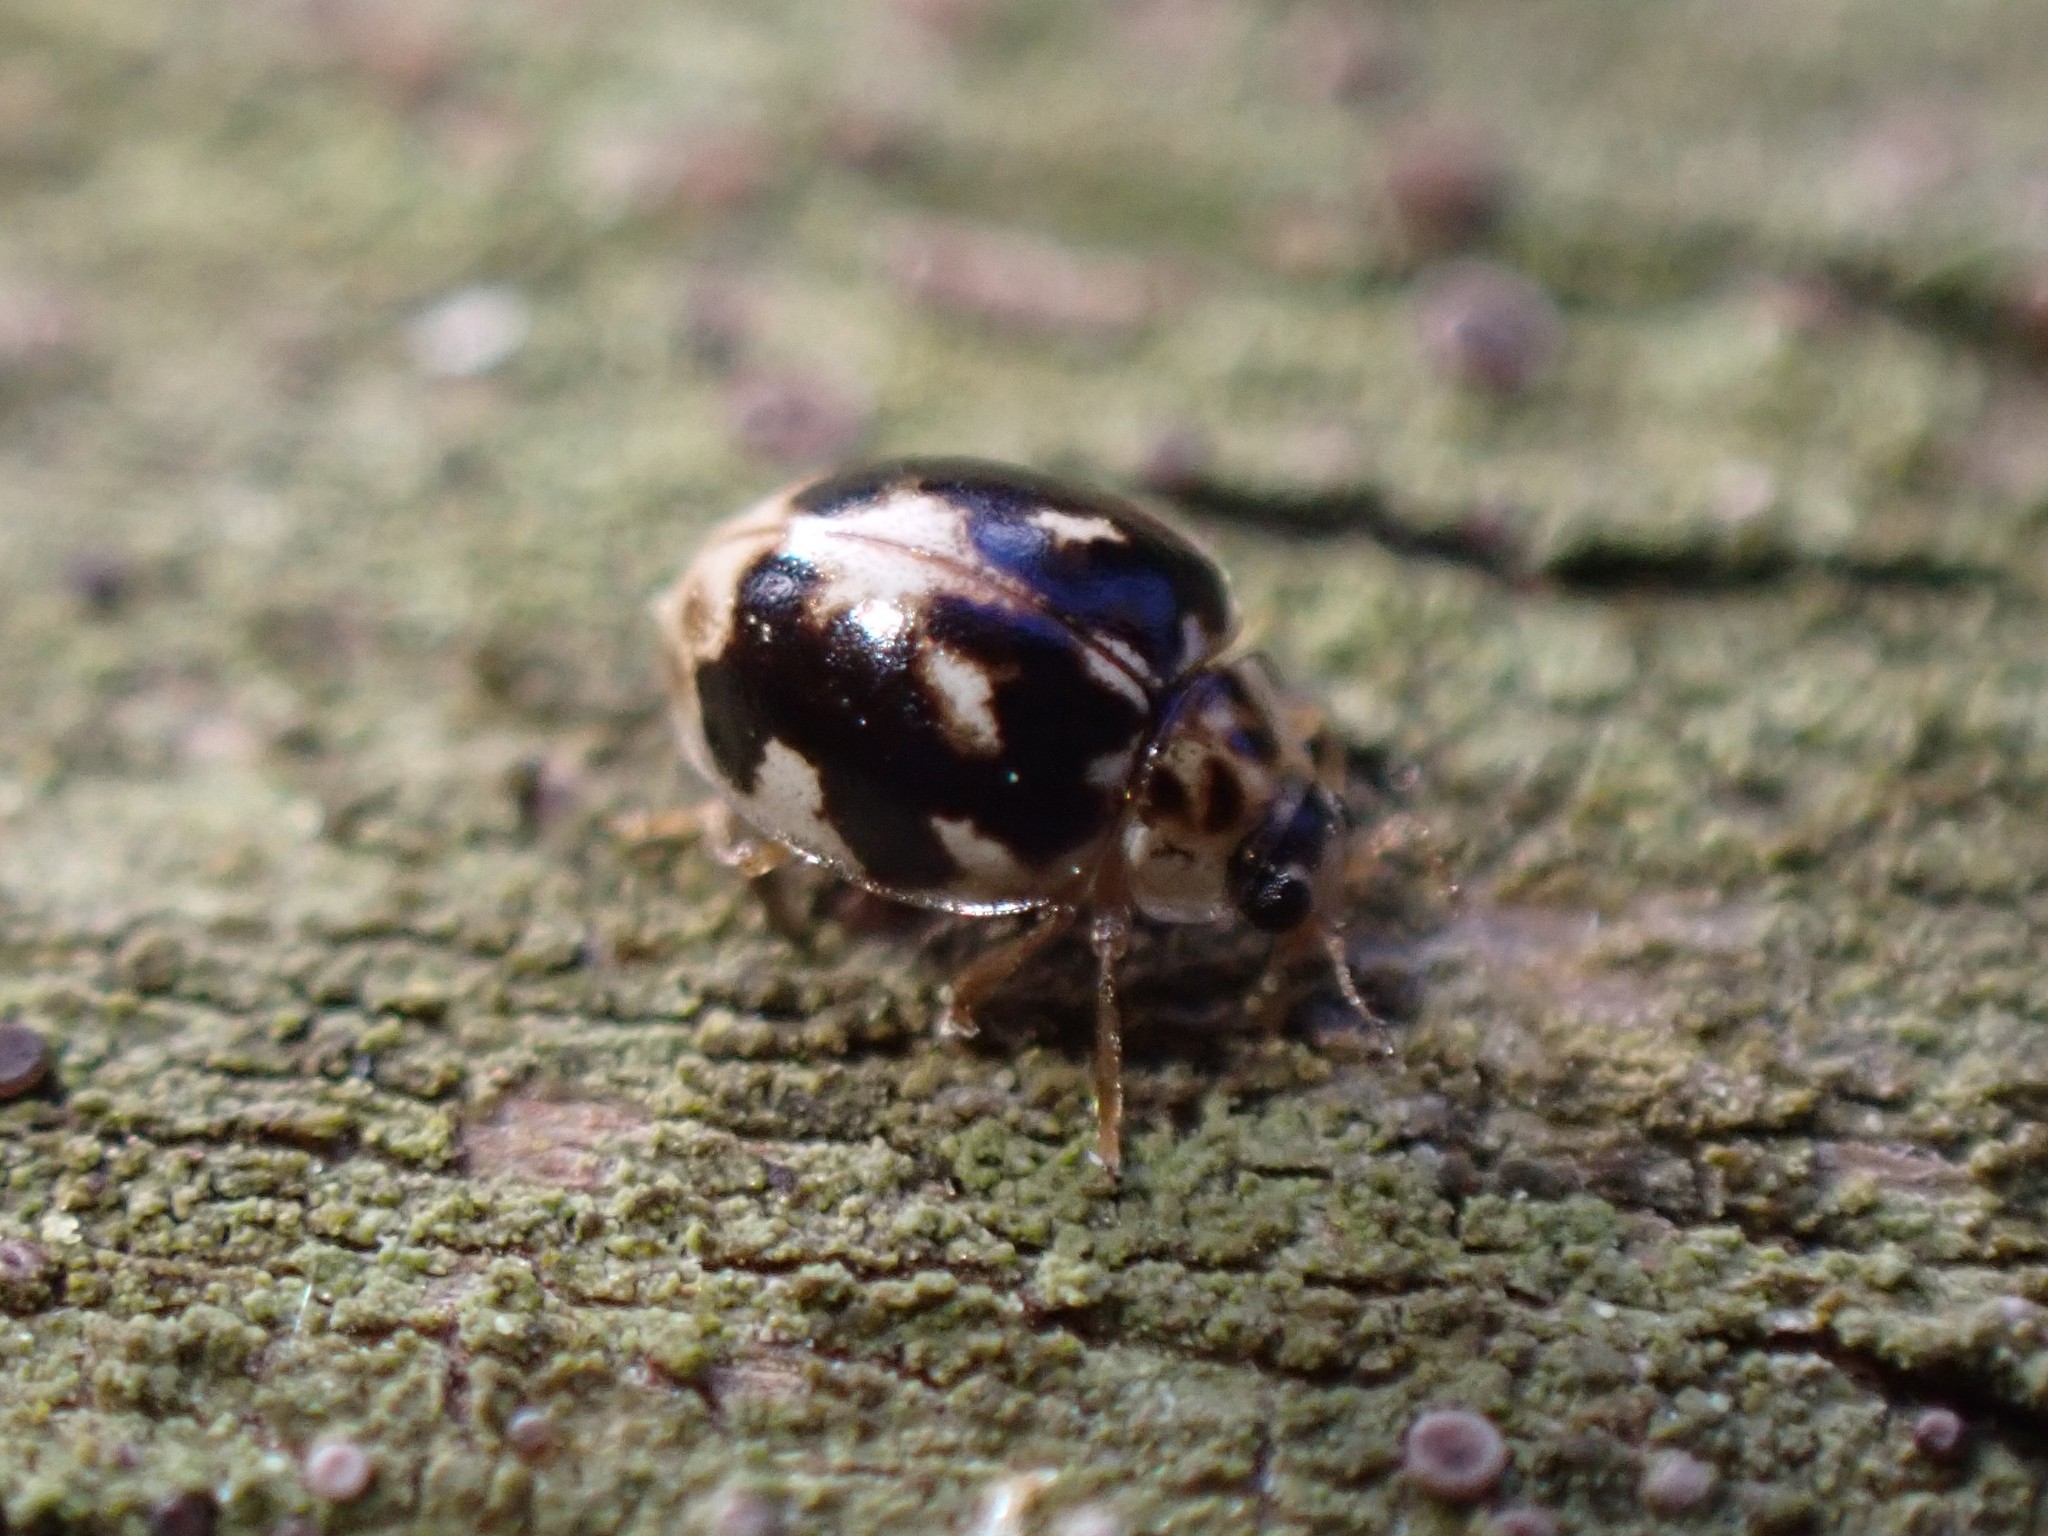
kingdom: Animalia
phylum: Arthropoda
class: Insecta
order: Coleoptera
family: Coccinellidae
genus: Psyllobora
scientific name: Psyllobora vigintimaculata
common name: Ladybird beetle
